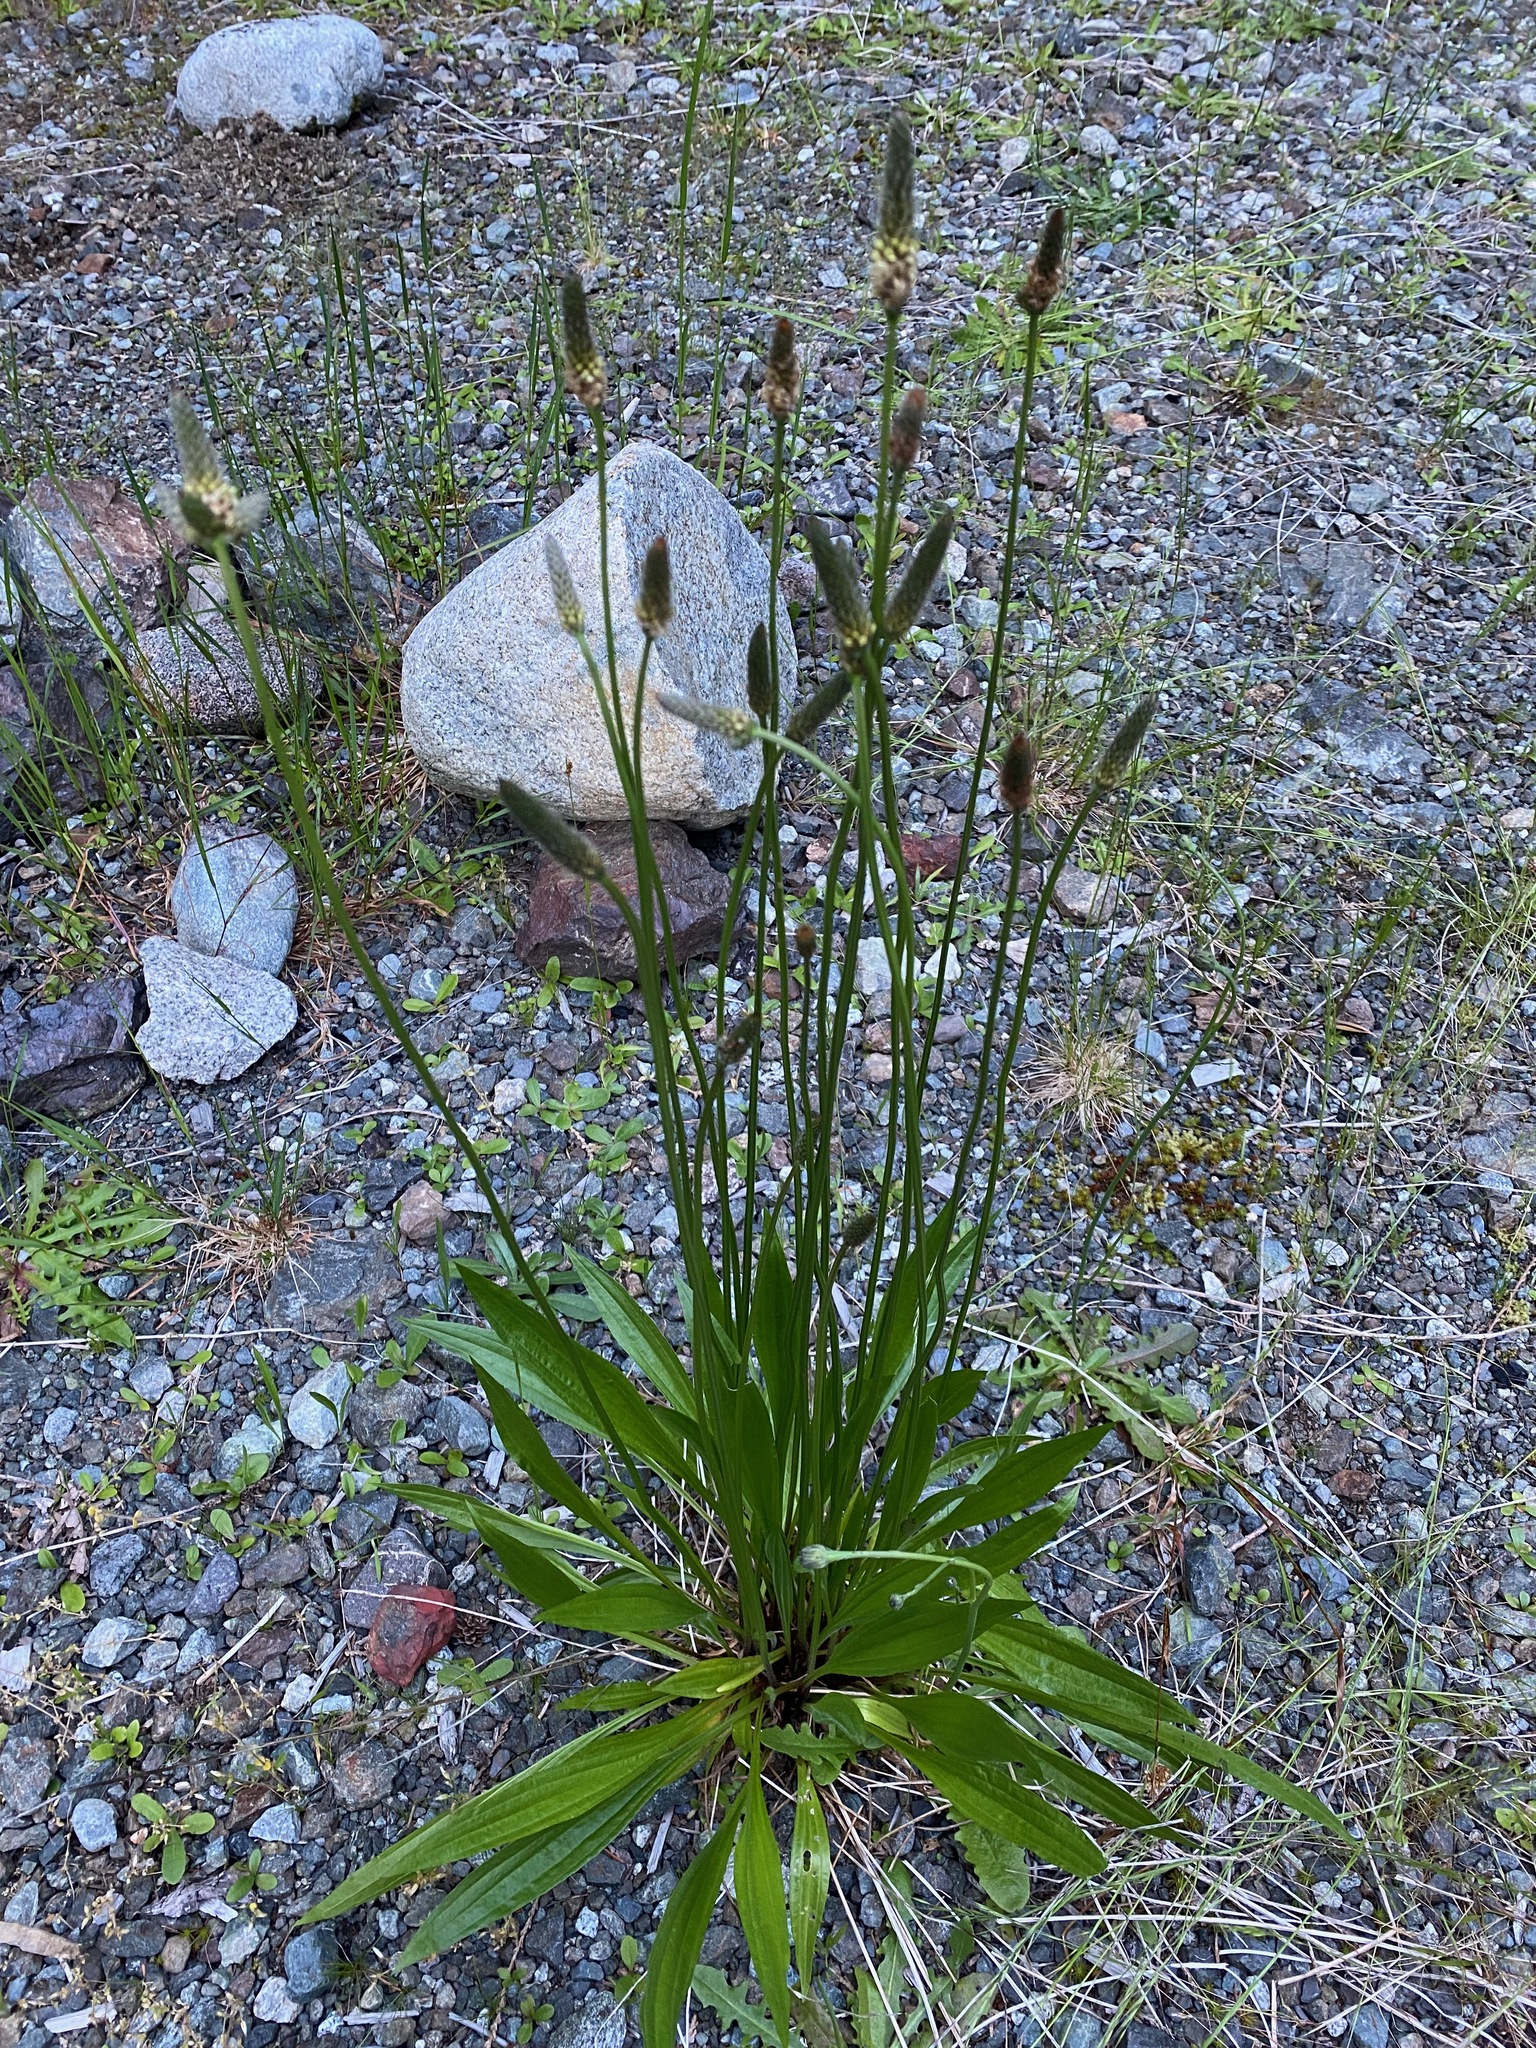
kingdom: Plantae
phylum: Tracheophyta
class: Magnoliopsida
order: Lamiales
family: Plantaginaceae
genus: Plantago
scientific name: Plantago lanceolata
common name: Ribwort plantain
